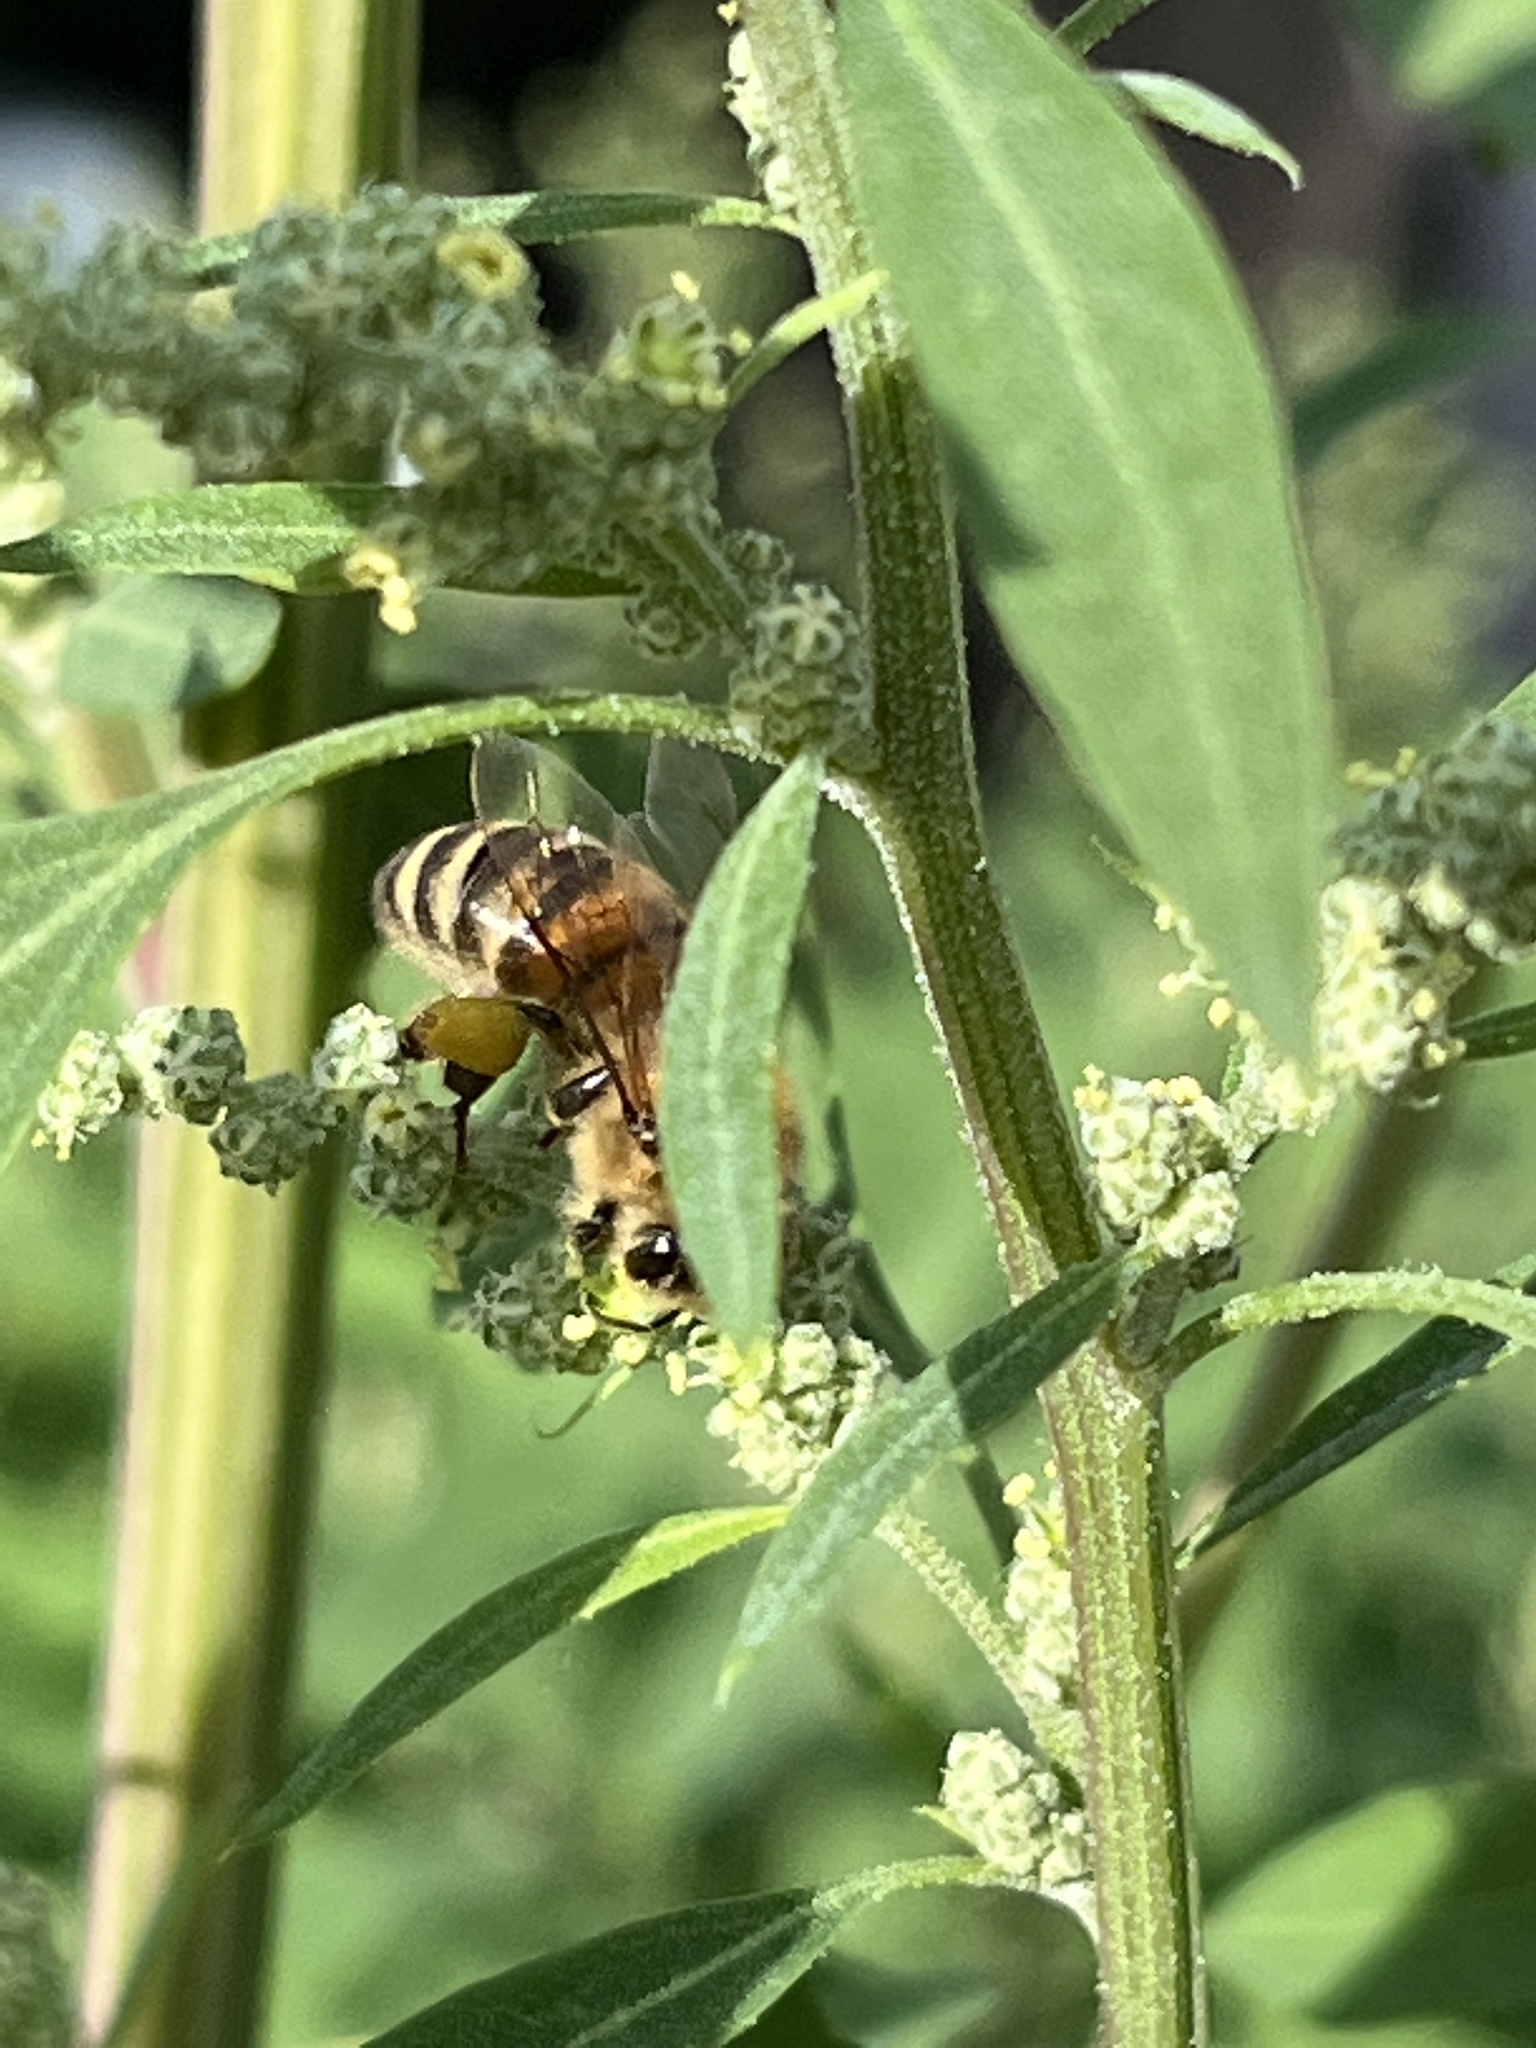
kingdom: Animalia
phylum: Arthropoda
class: Insecta
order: Hymenoptera
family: Apidae
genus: Apis
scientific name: Apis mellifera
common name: Honey bee
